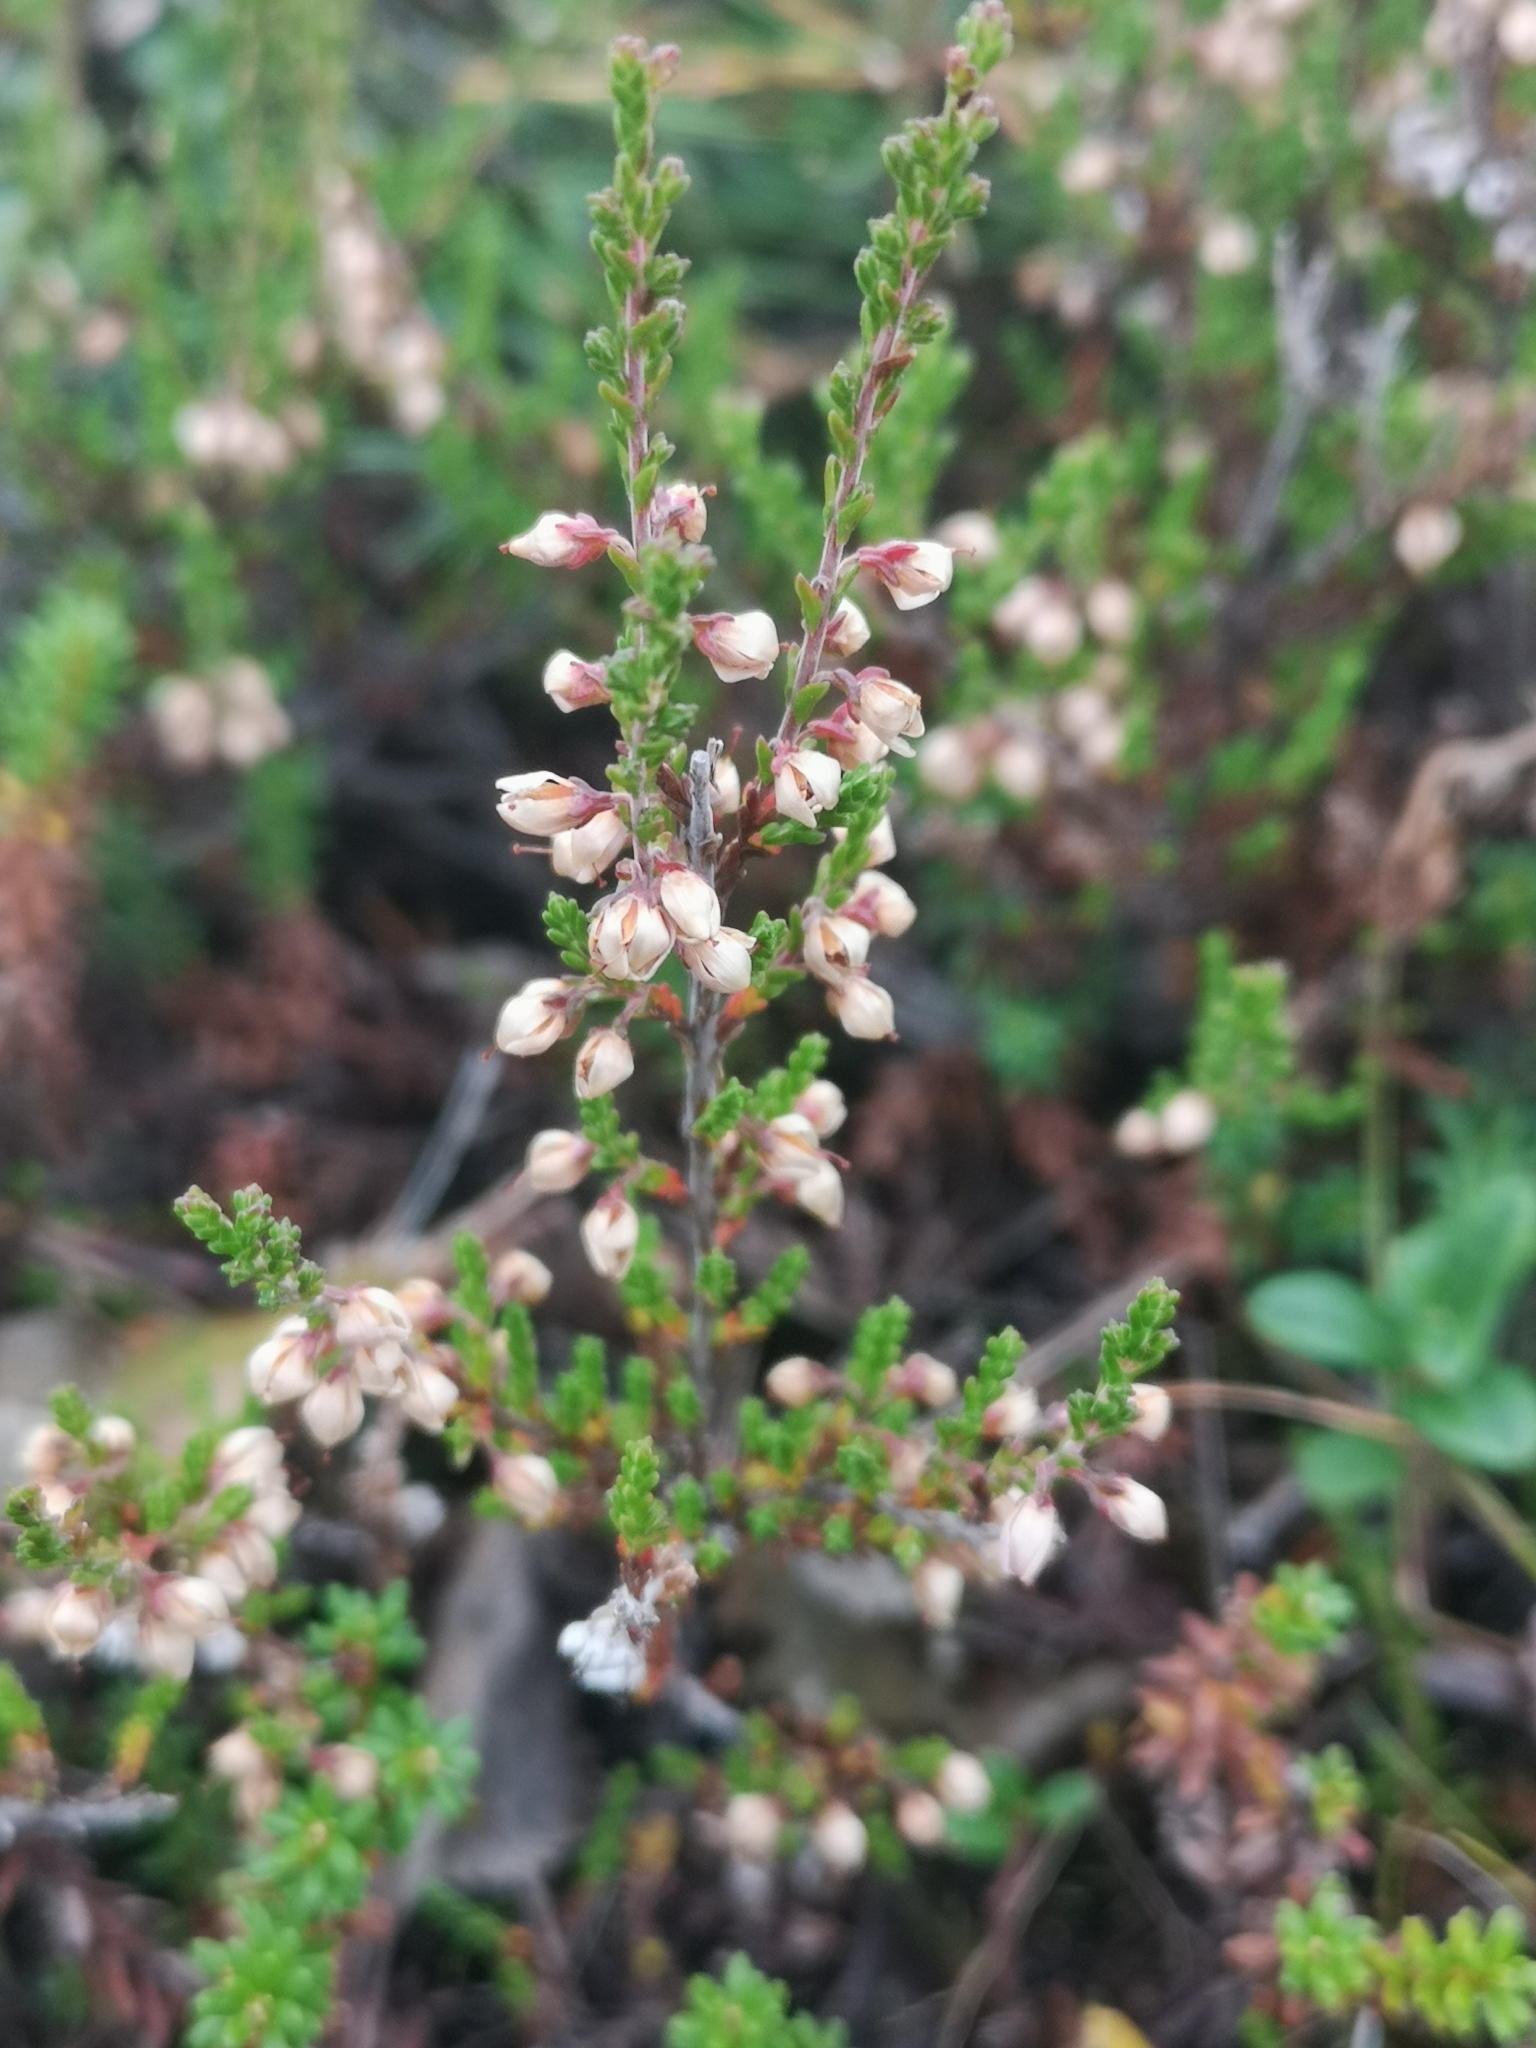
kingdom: Plantae
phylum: Tracheophyta
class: Magnoliopsida
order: Ericales
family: Ericaceae
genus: Calluna
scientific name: Calluna vulgaris
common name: Heather
